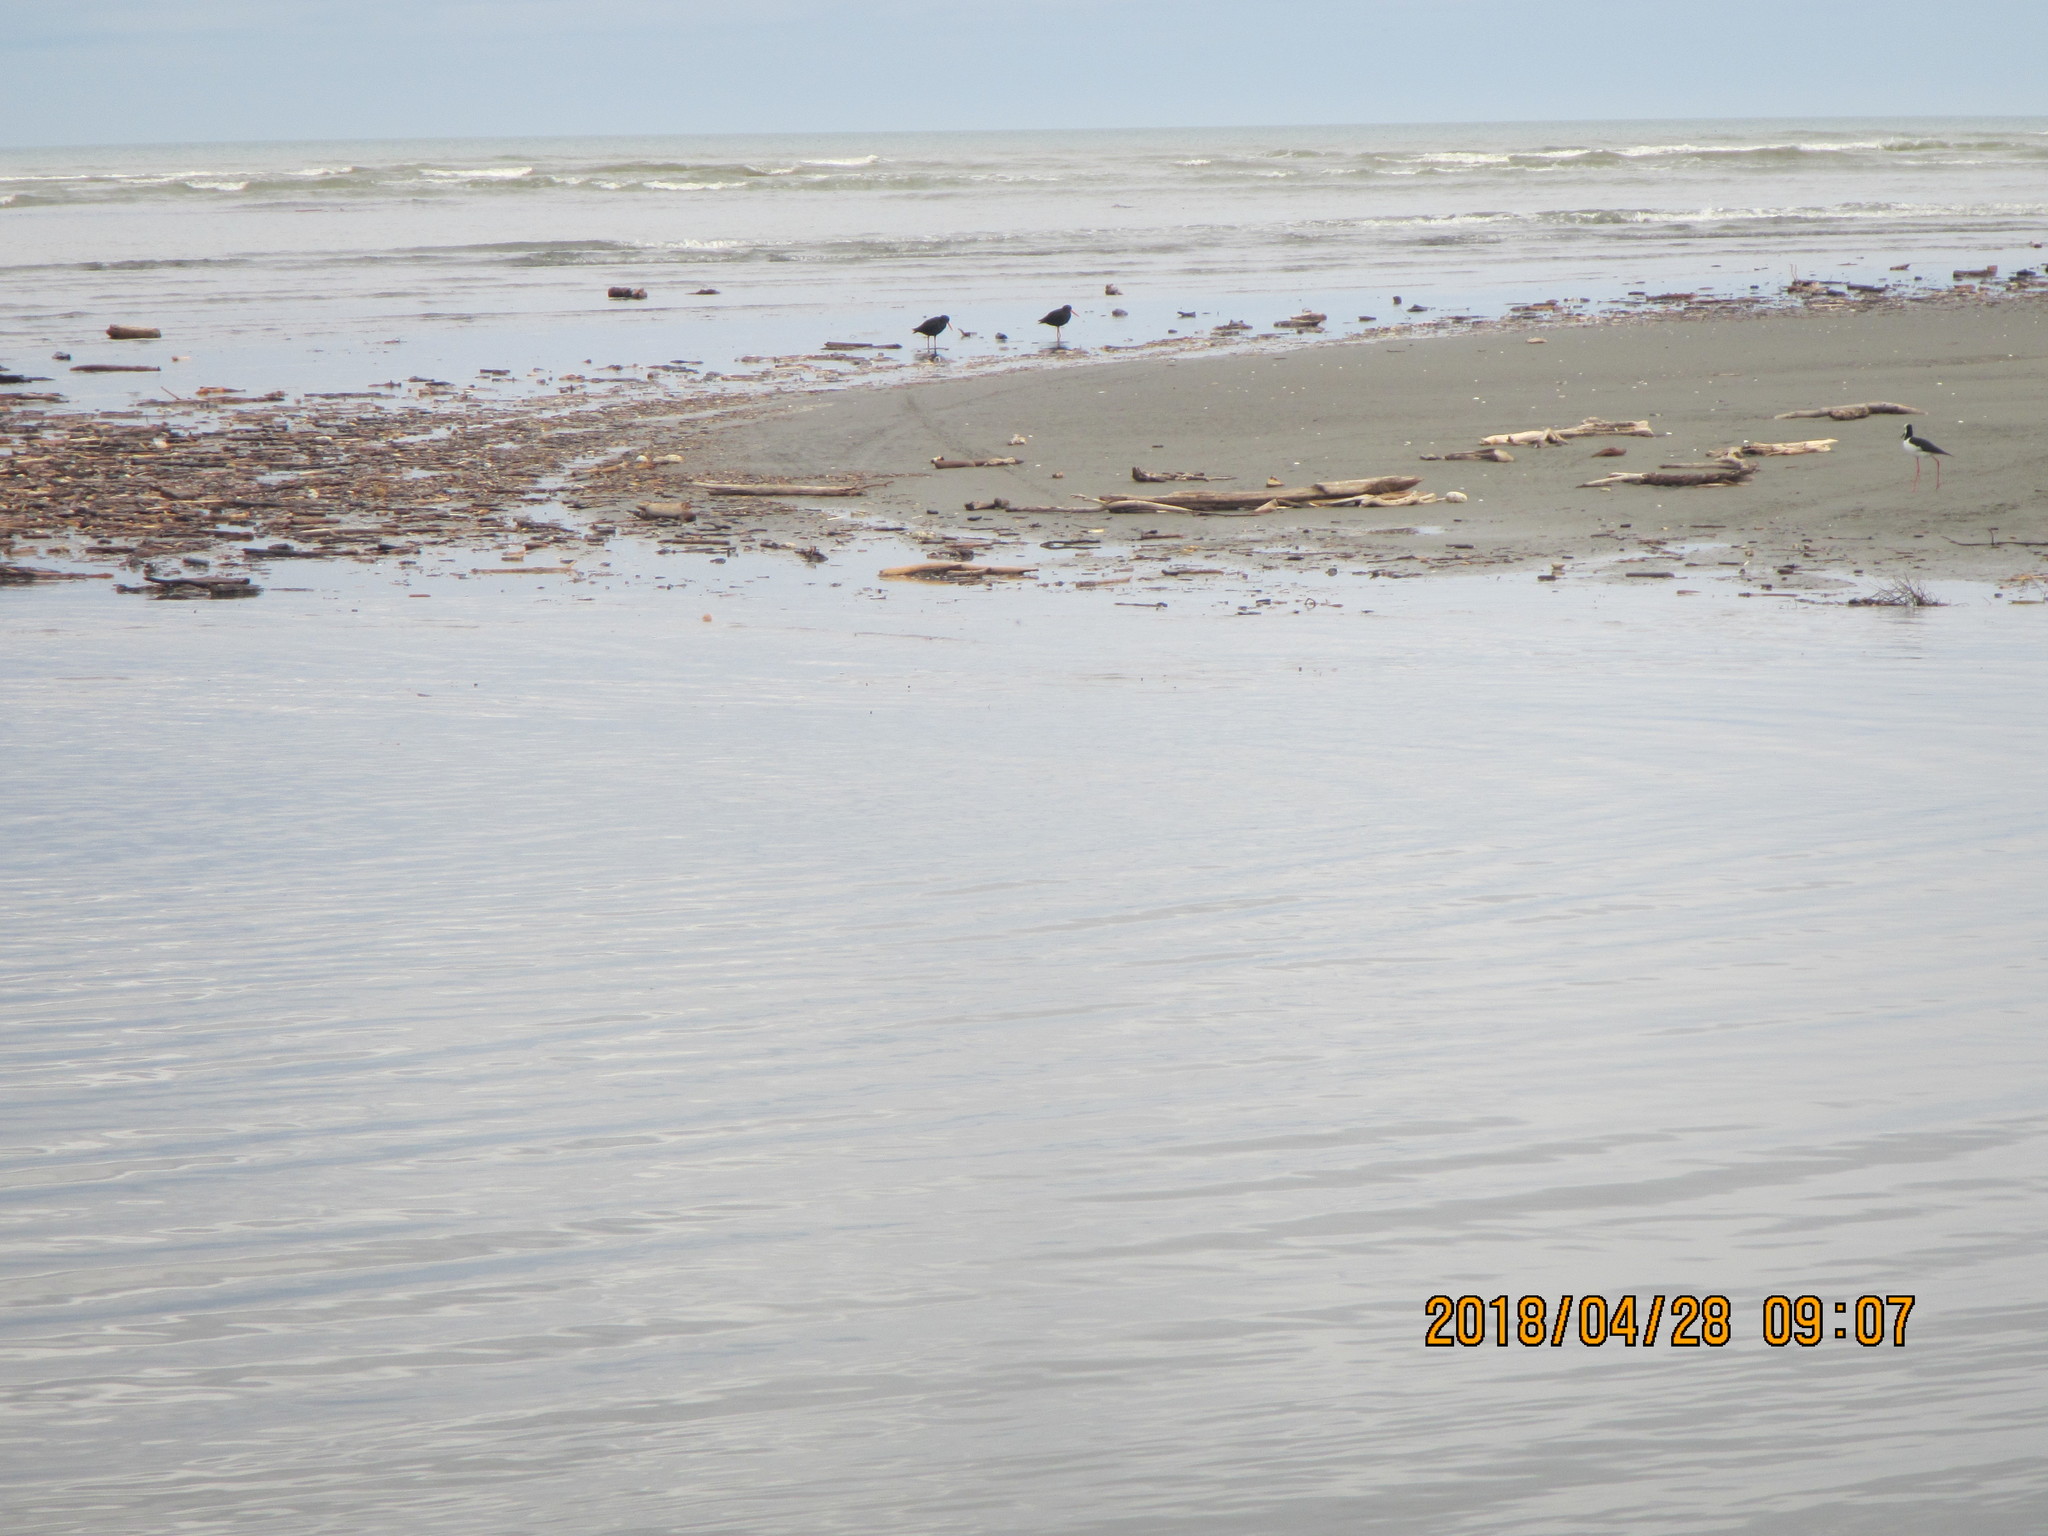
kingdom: Animalia
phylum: Chordata
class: Aves
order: Charadriiformes
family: Haematopodidae
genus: Haematopus
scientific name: Haematopus unicolor
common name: Variable oystercatcher
